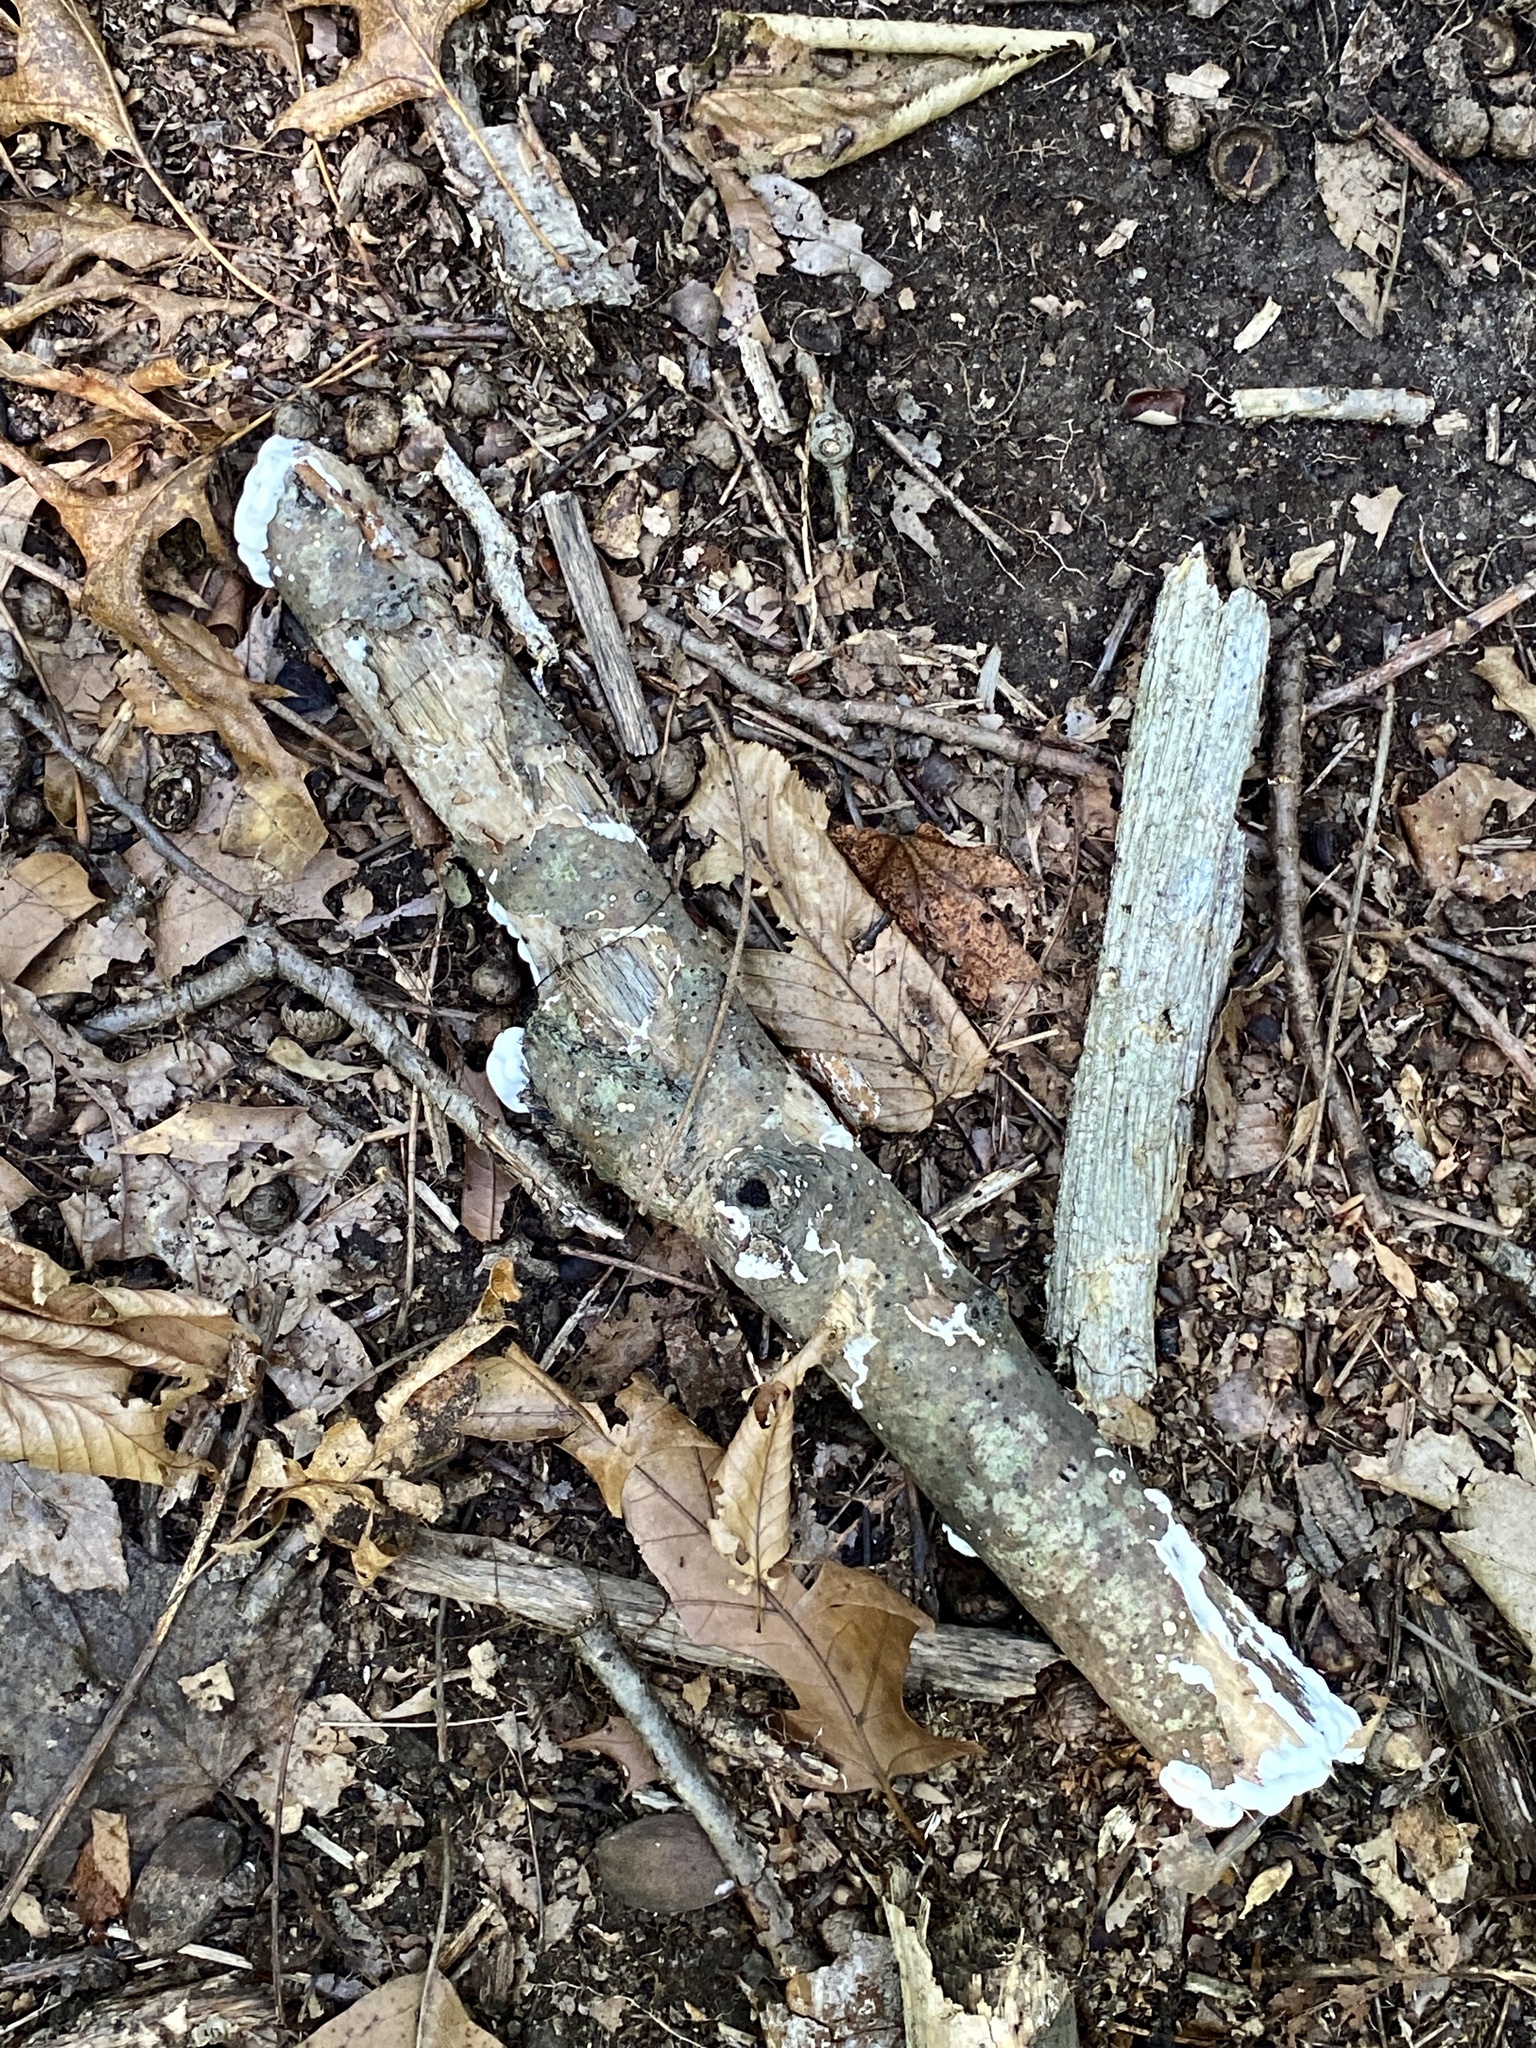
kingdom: Fungi
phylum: Basidiomycota
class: Agaricomycetes
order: Polyporales
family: Irpicaceae
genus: Vitreoporus
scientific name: Vitreoporus dichrous
